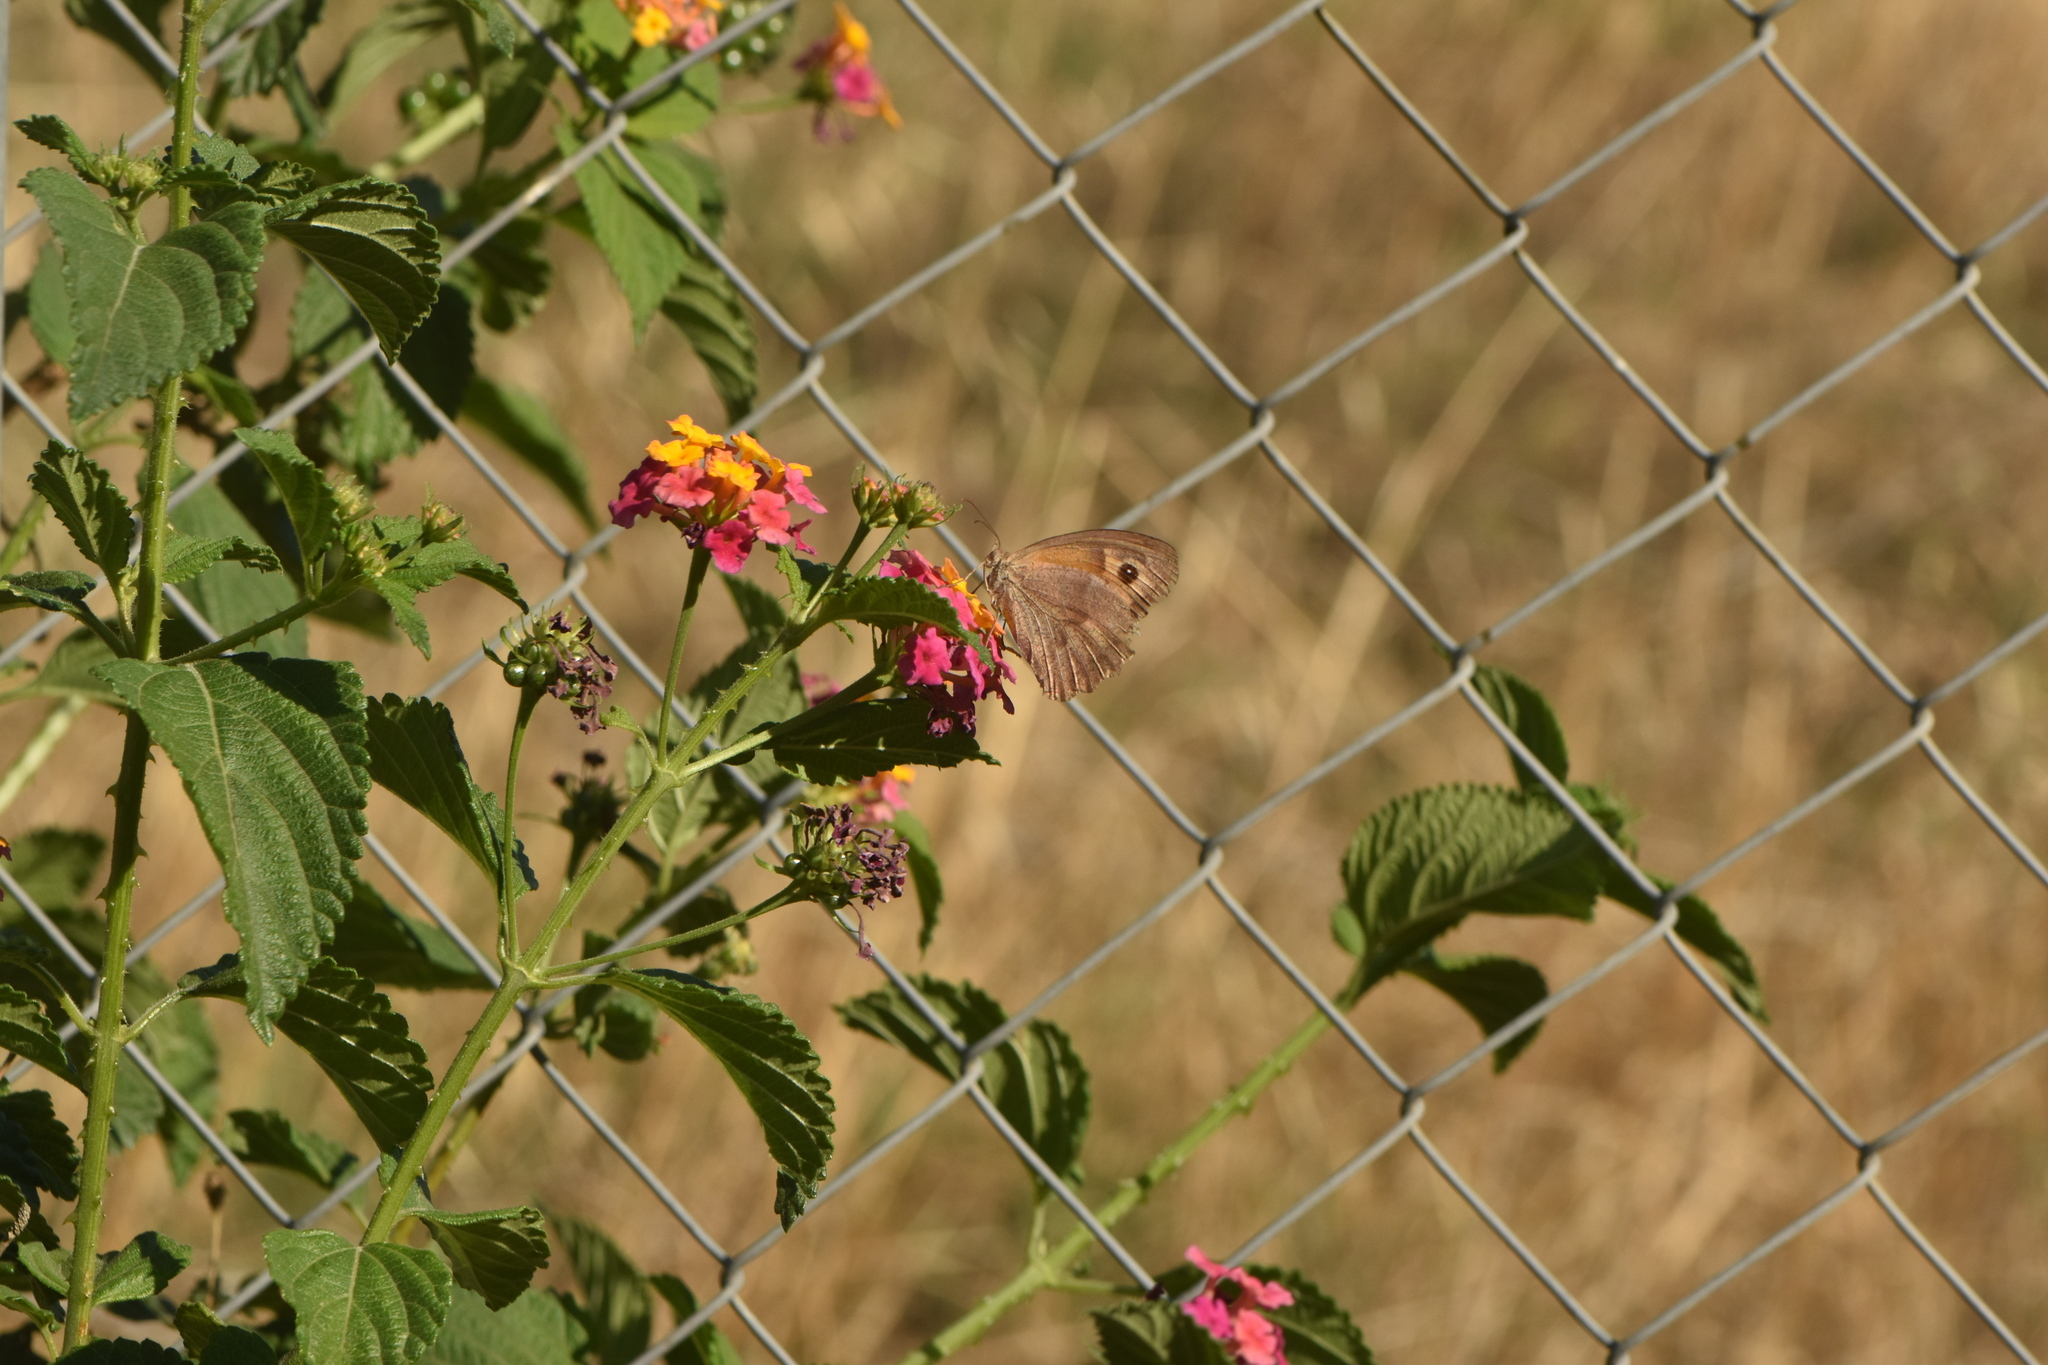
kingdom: Animalia
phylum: Arthropoda
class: Insecta
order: Lepidoptera
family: Nymphalidae
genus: Maniola
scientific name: Maniola jurtina
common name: Meadow brown
